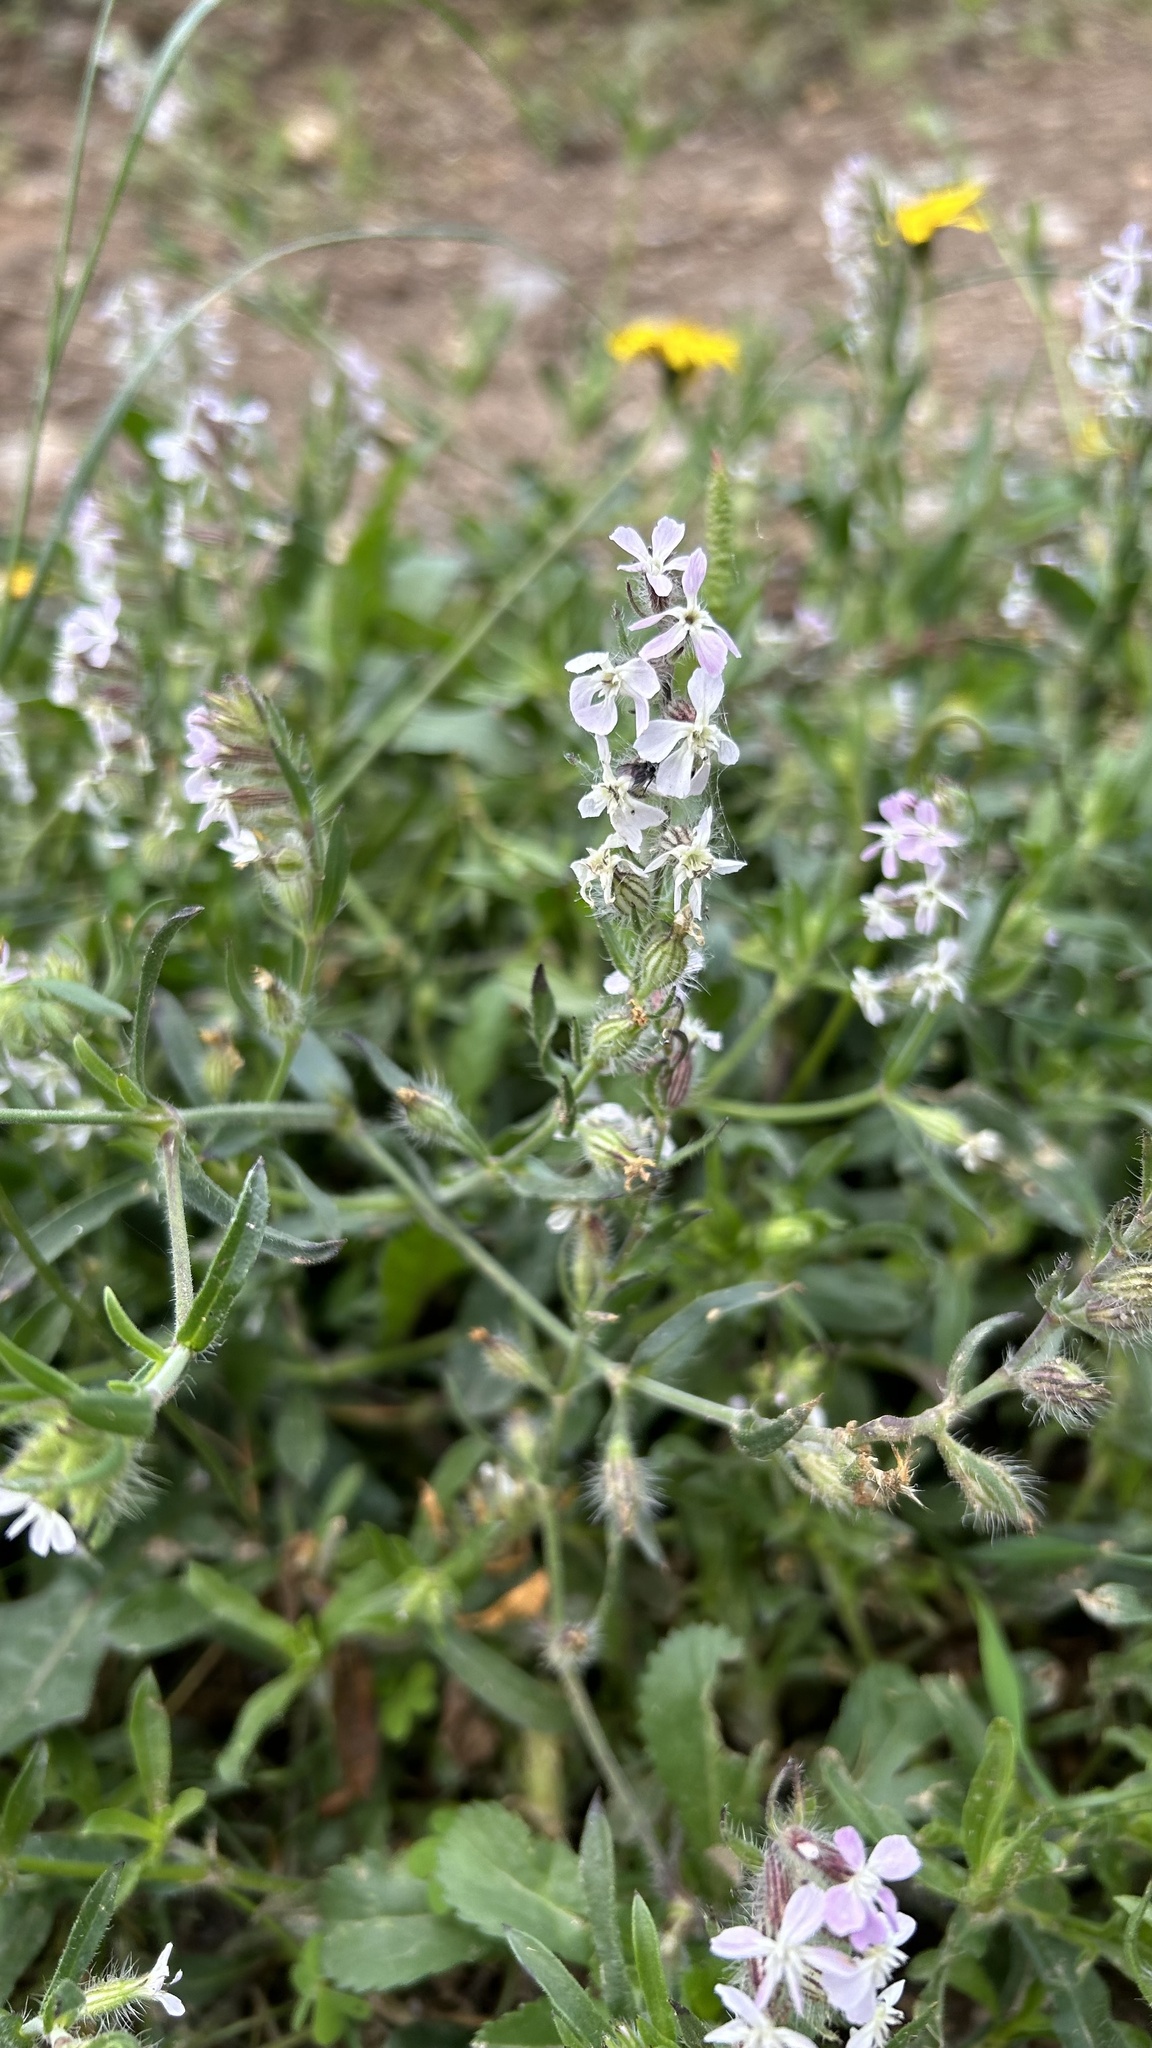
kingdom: Plantae
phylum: Tracheophyta
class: Magnoliopsida
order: Caryophyllales
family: Caryophyllaceae
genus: Silene
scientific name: Silene gallica
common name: Small-flowered catchfly
